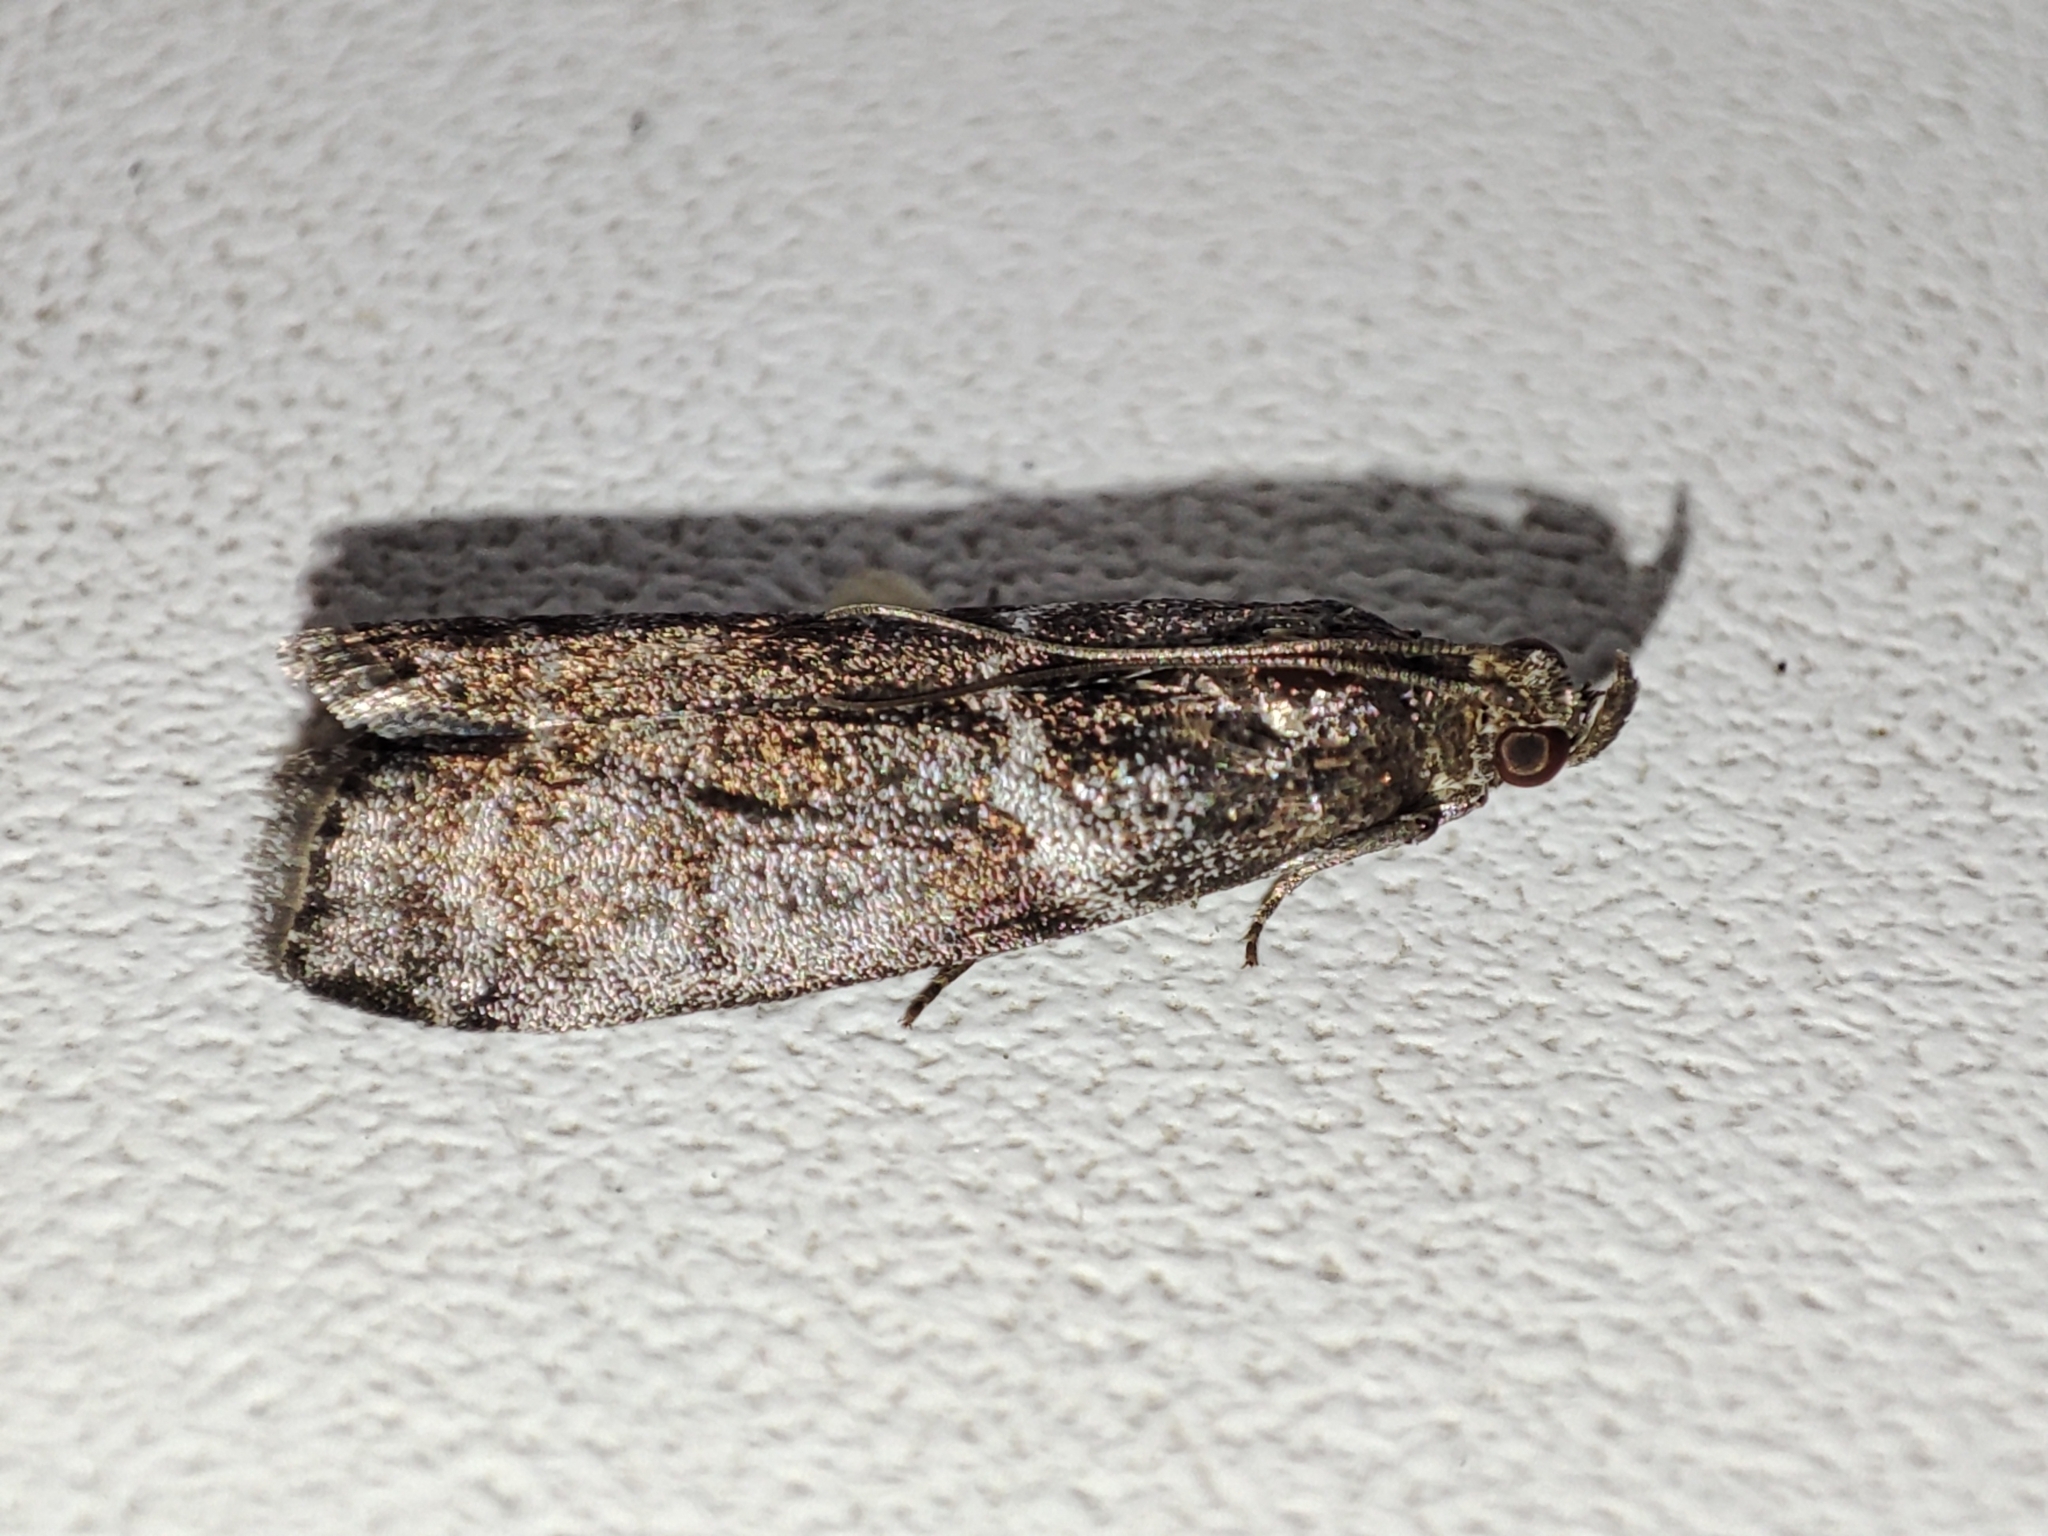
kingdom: Animalia
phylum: Arthropoda
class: Insecta
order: Lepidoptera
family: Pyralidae
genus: Oncocera
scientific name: Oncocera Laodamia faecella
